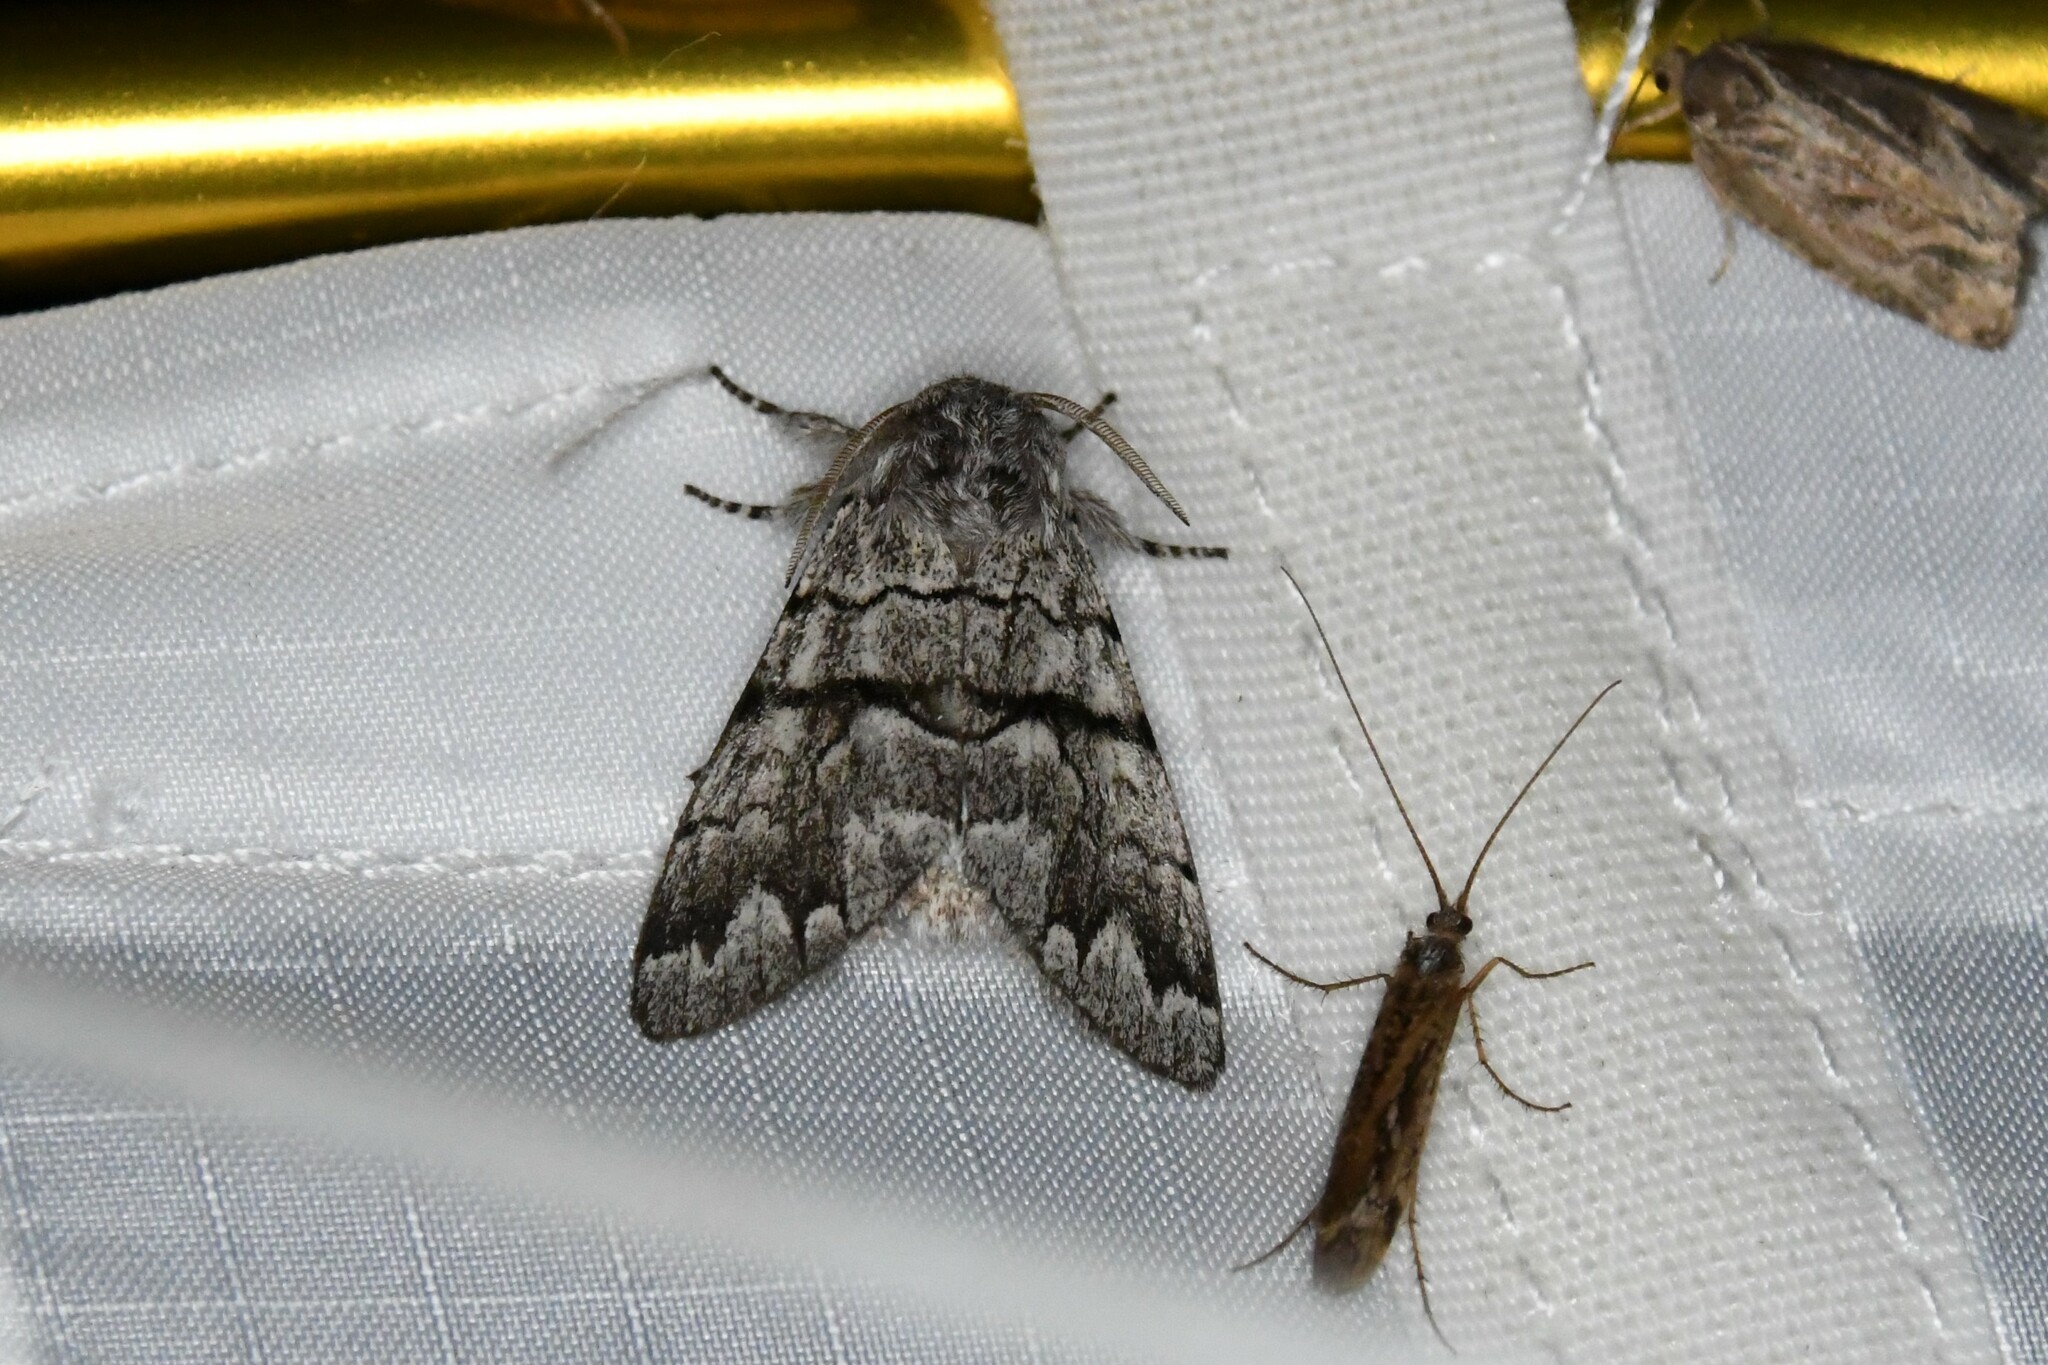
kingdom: Animalia
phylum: Arthropoda
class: Insecta
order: Lepidoptera
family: Noctuidae
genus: Panthea
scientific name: Panthea furcilla
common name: Eastern panthea moth
